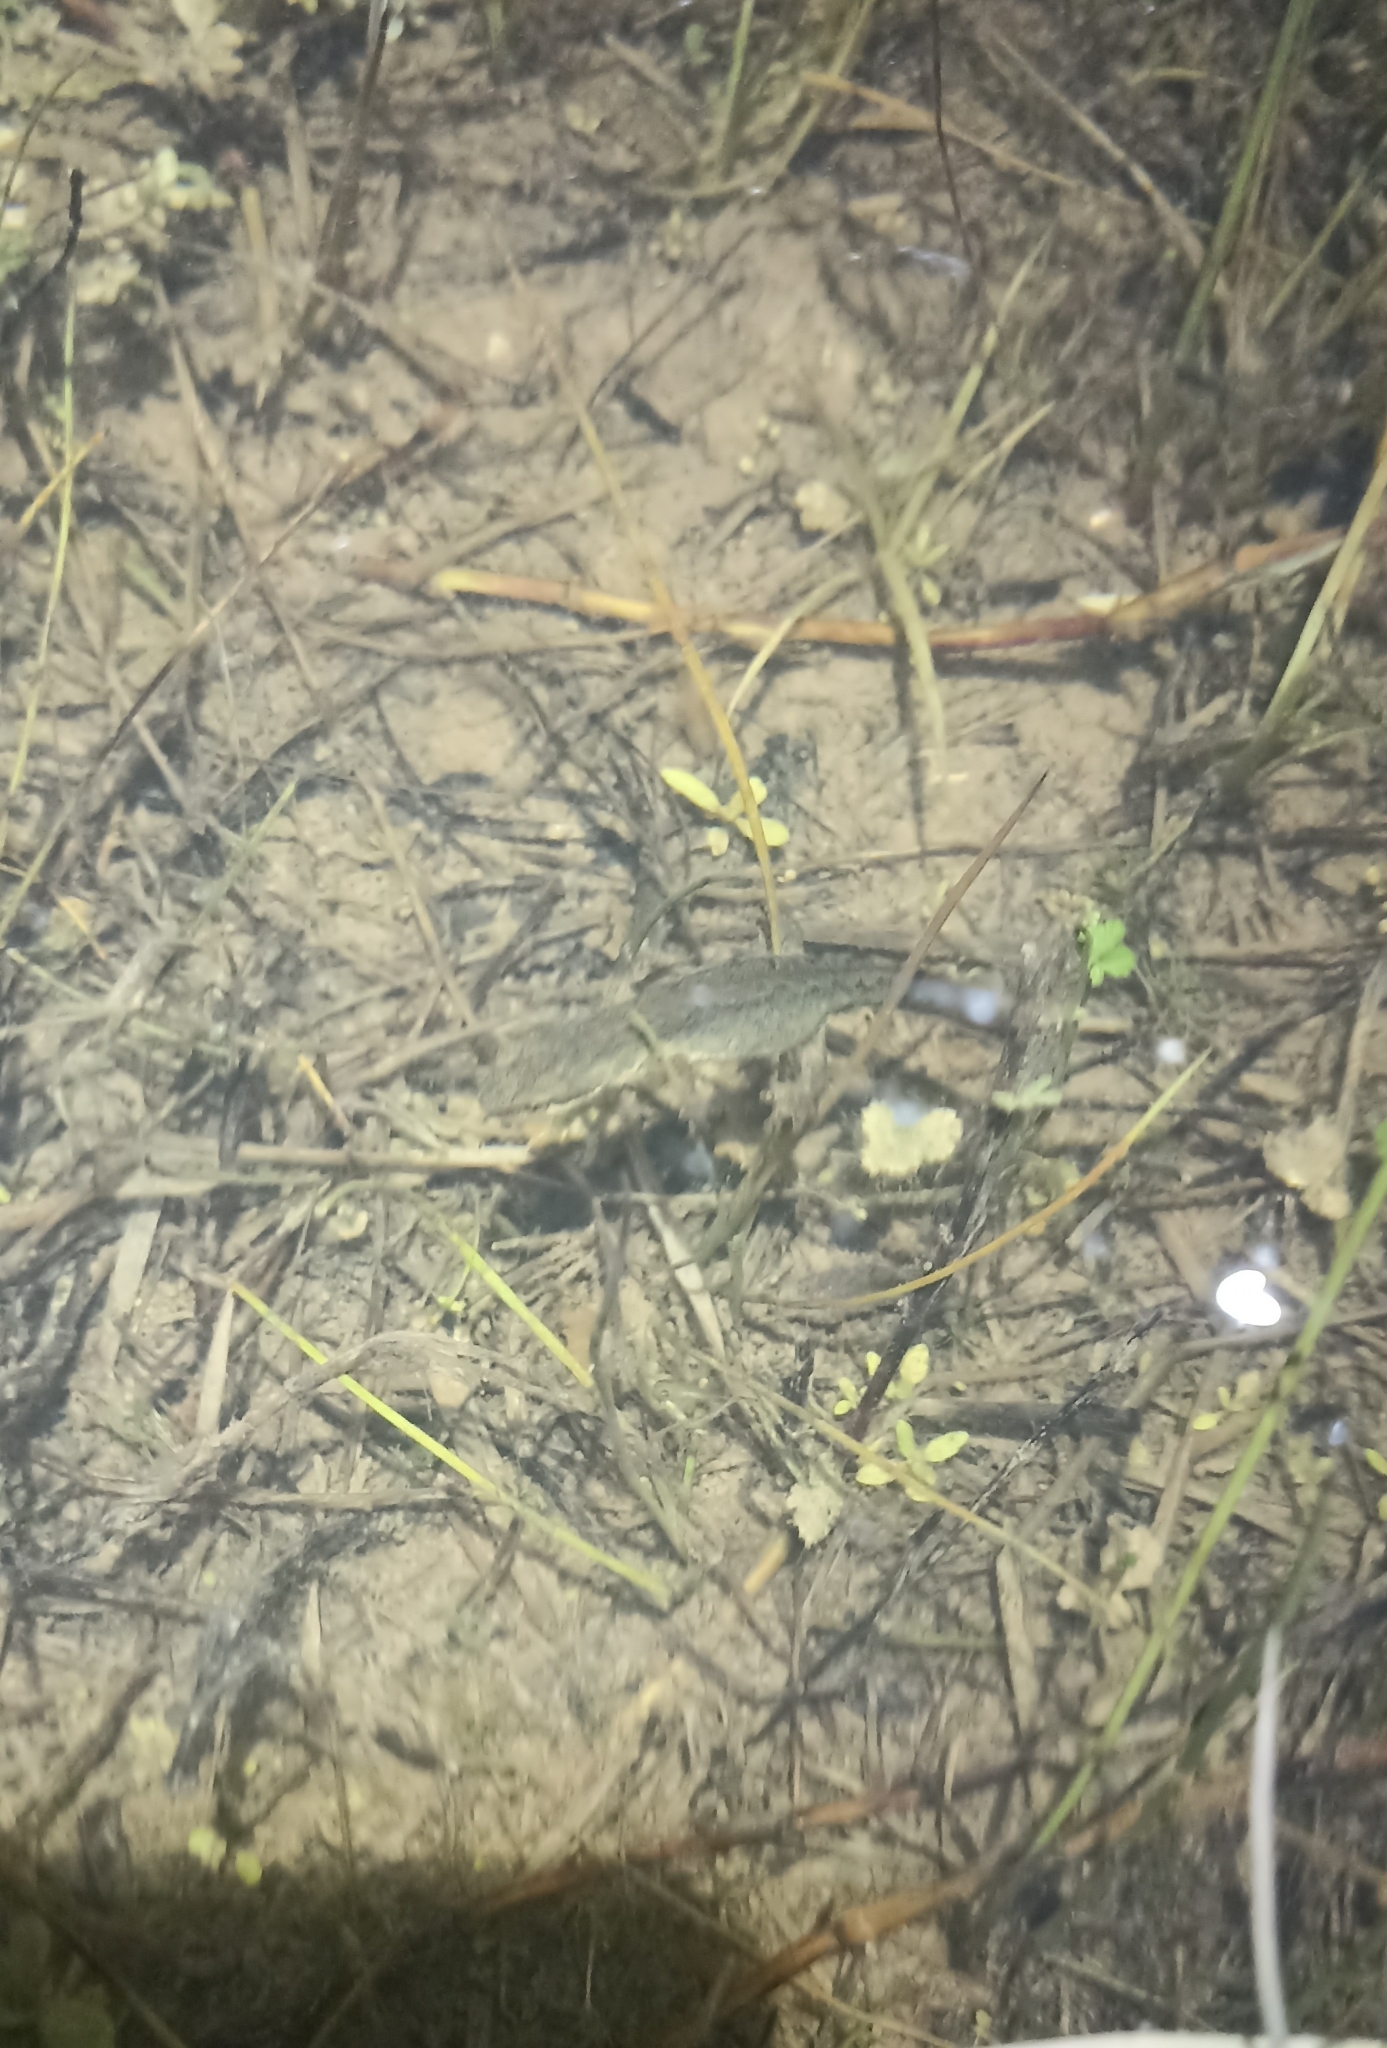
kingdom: Animalia
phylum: Chordata
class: Amphibia
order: Caudata
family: Salamandridae
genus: Lissotriton
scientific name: Lissotriton helveticus
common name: Palmate newt
